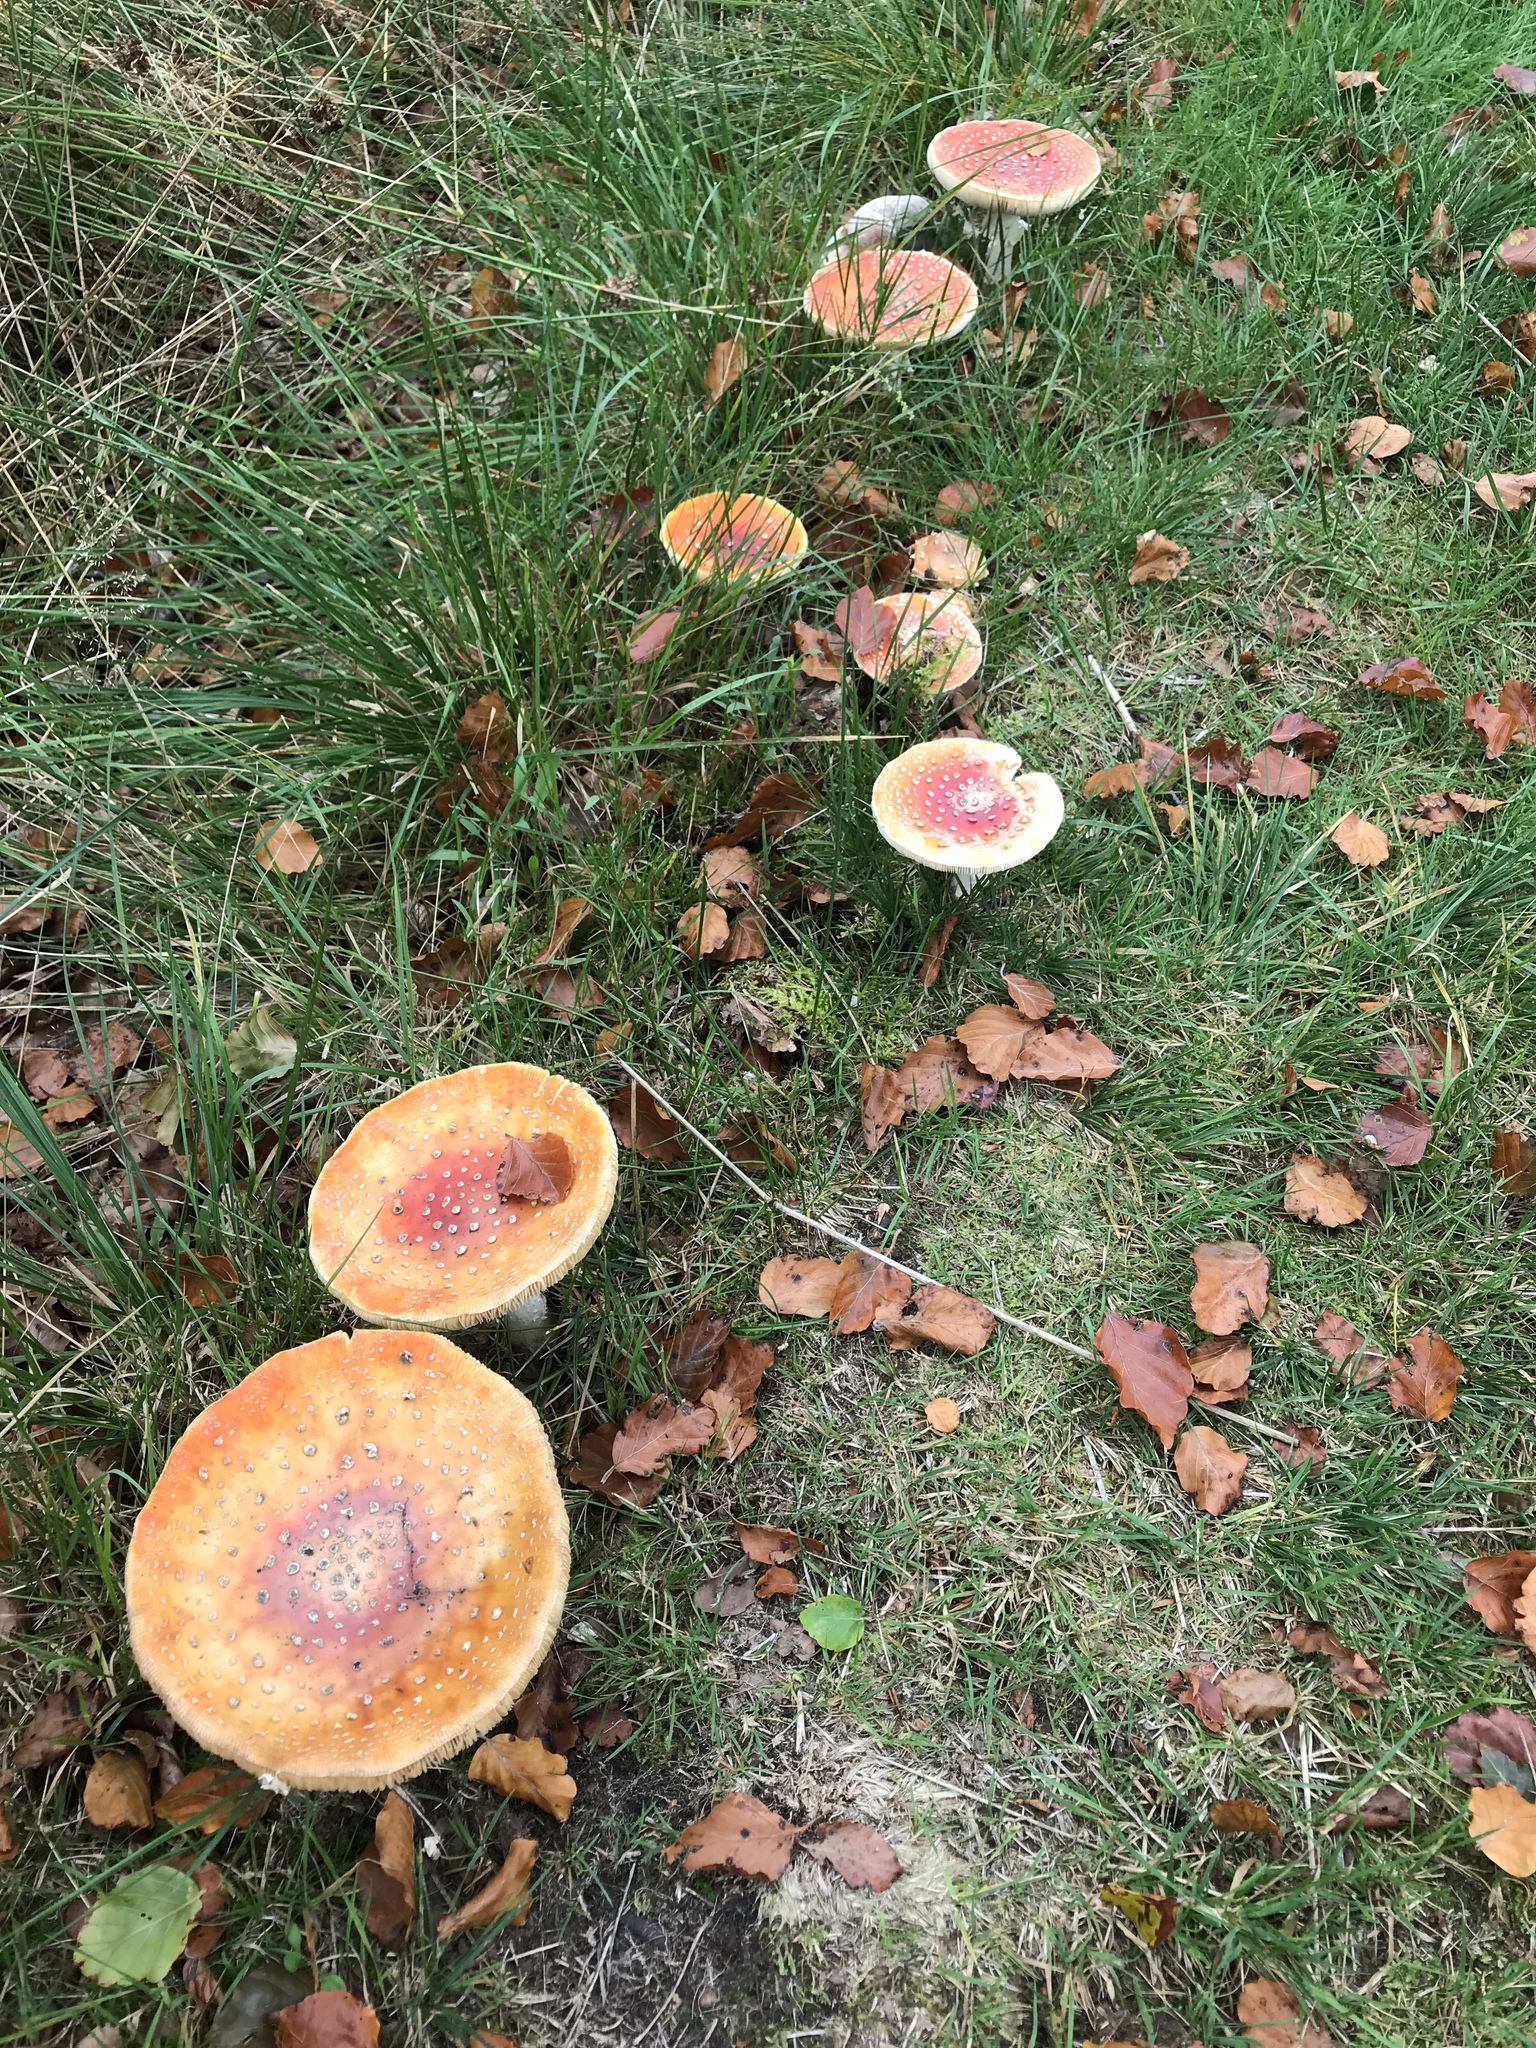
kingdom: Fungi
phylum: Basidiomycota
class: Agaricomycetes
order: Agaricales
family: Amanitaceae
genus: Amanita
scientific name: Amanita muscaria
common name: Fly agaric
